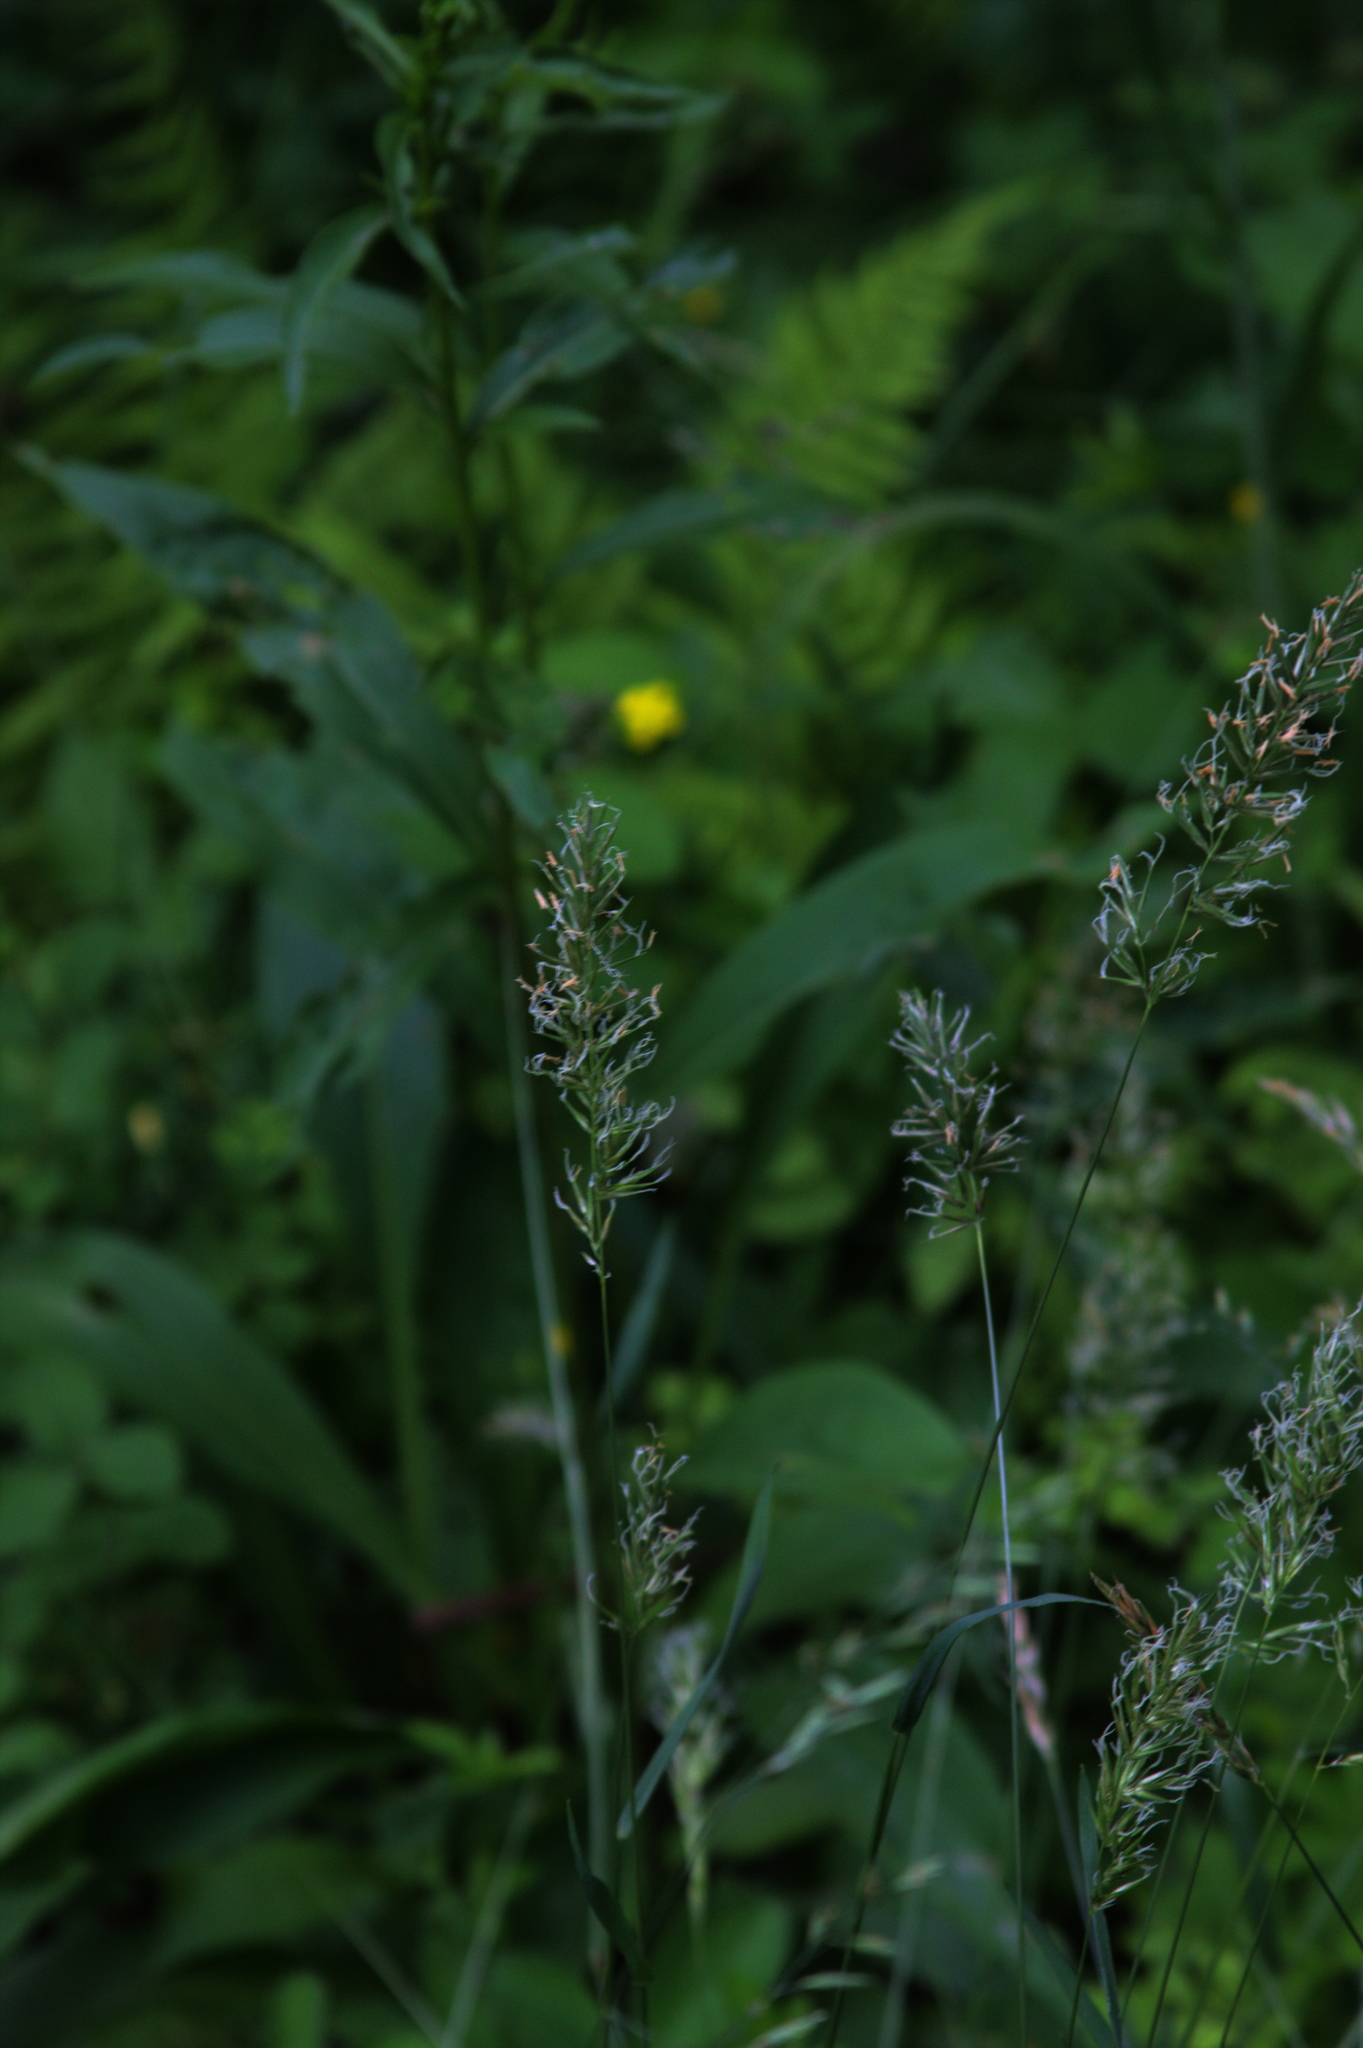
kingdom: Plantae
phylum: Tracheophyta
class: Liliopsida
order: Poales
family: Poaceae
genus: Anthoxanthum
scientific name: Anthoxanthum odoratum
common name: Sweet vernalgrass
